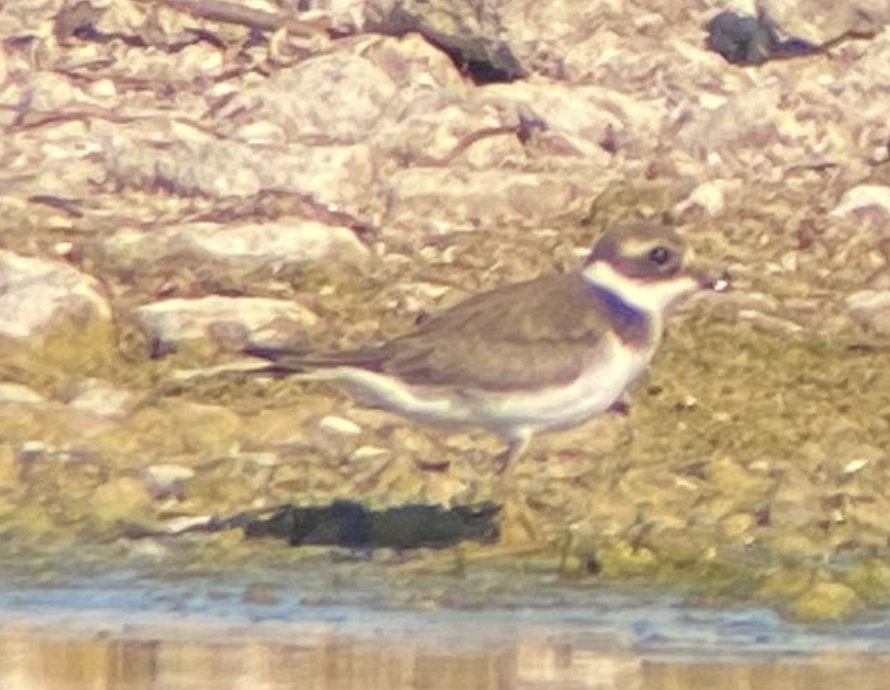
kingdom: Animalia
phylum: Chordata
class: Aves
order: Charadriiformes
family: Charadriidae
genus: Charadrius
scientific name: Charadrius hiaticula
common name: Common ringed plover
